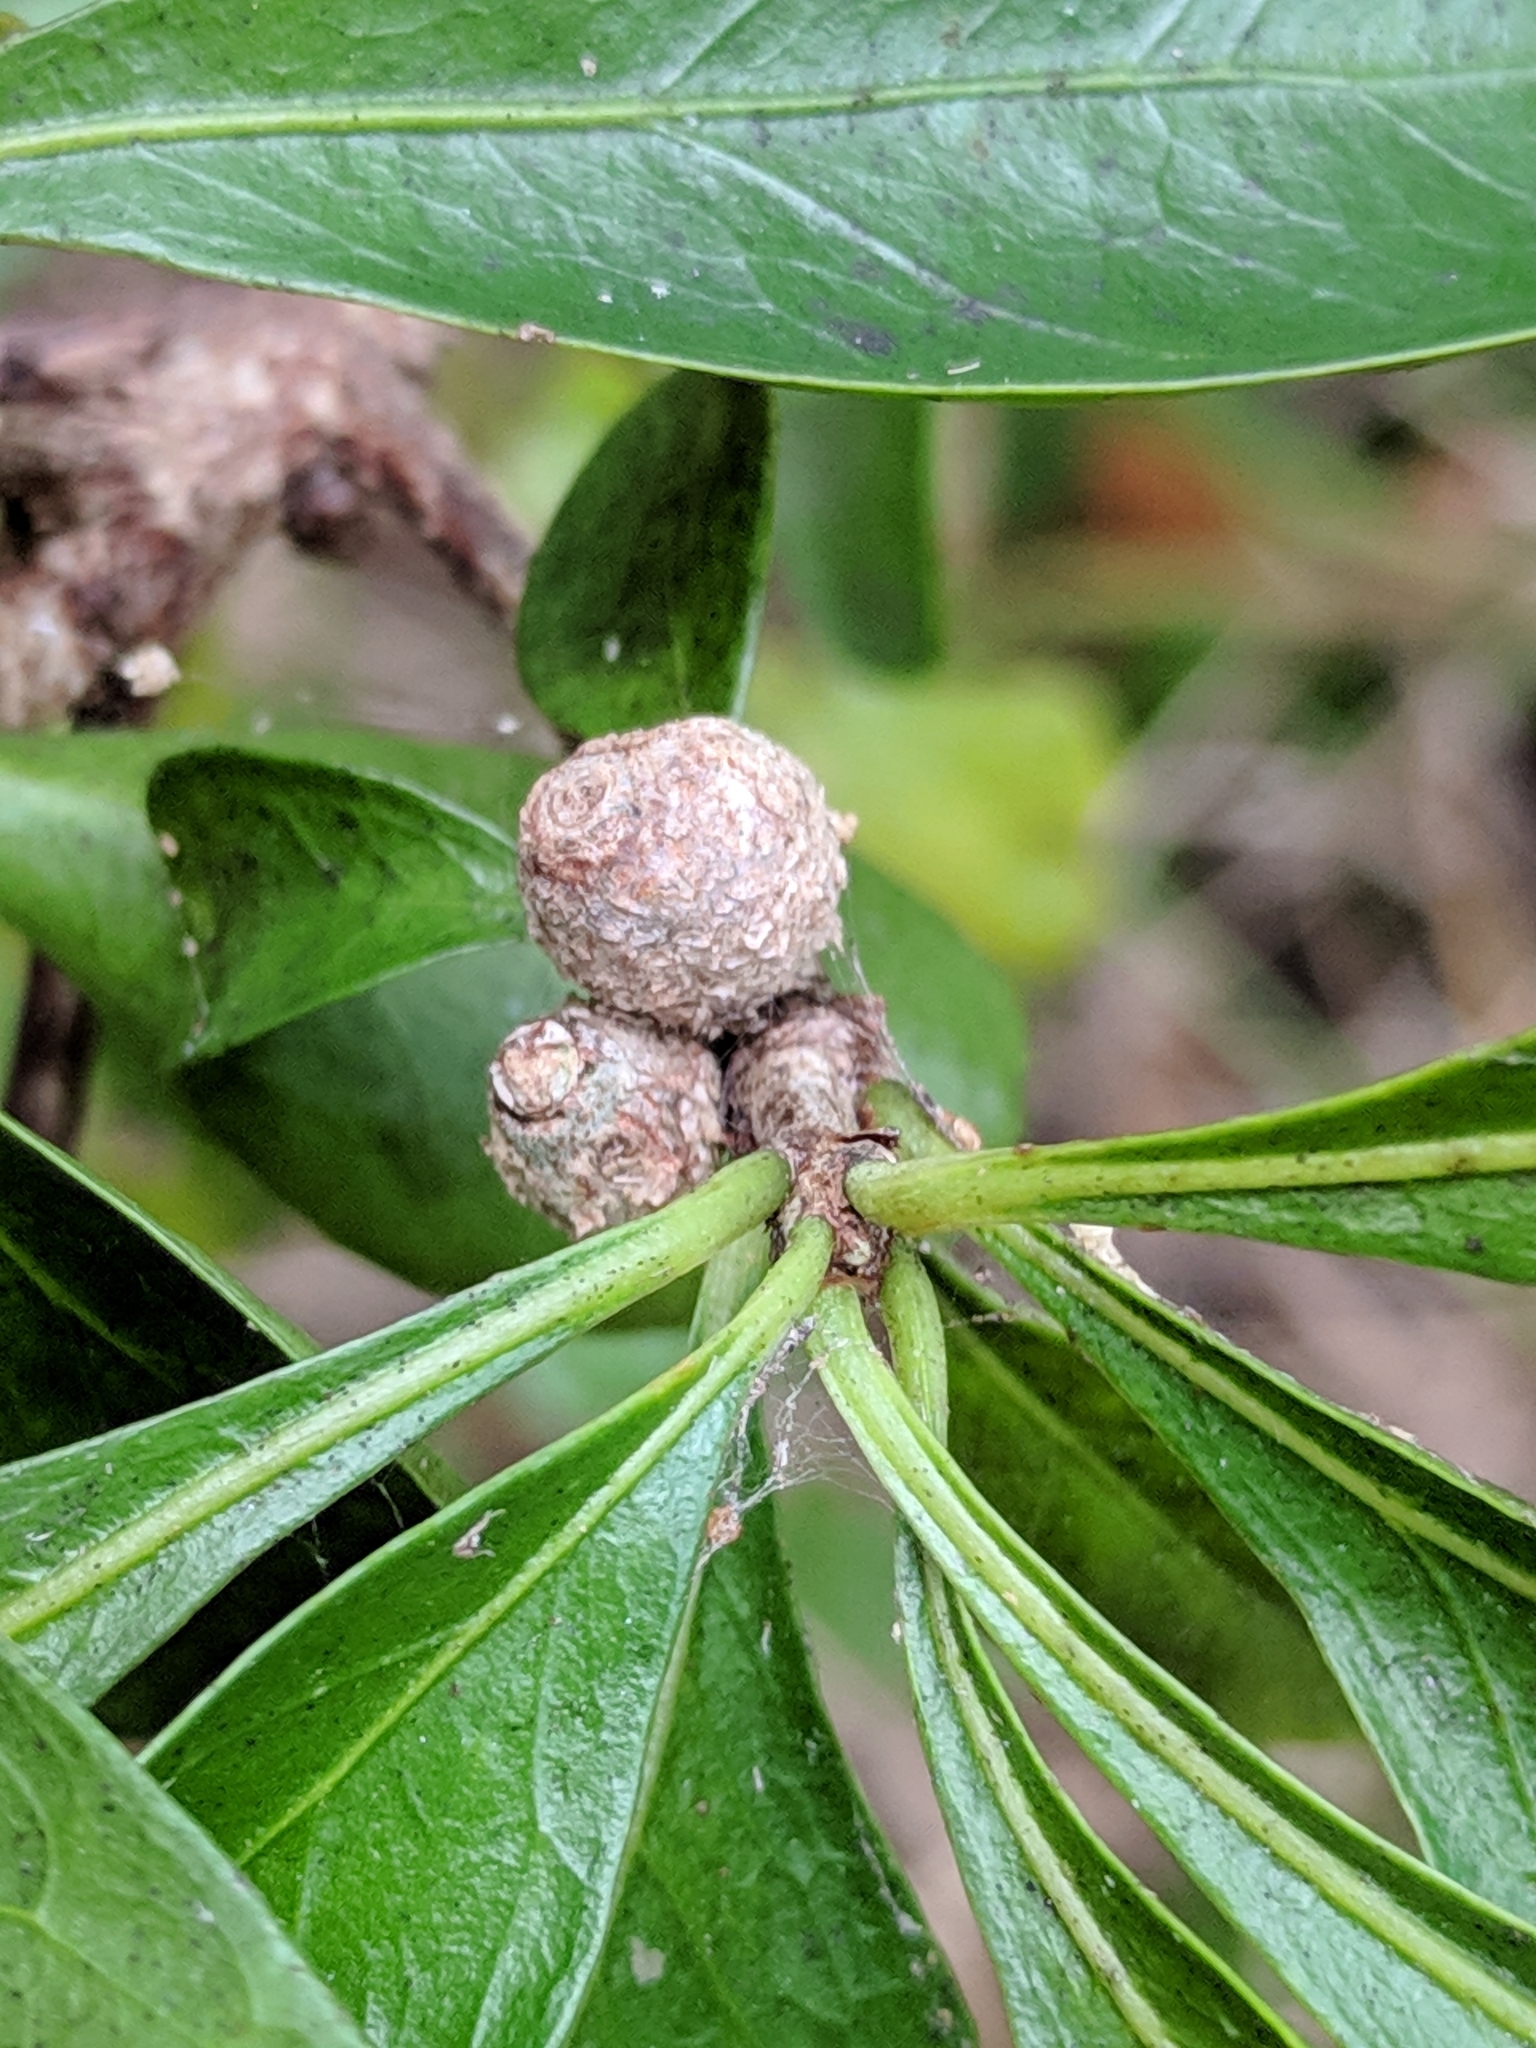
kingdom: Plantae
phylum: Tracheophyta
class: Magnoliopsida
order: Gentianales
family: Rubiaceae
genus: Randia
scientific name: Randia aculeata
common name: Inkberry
